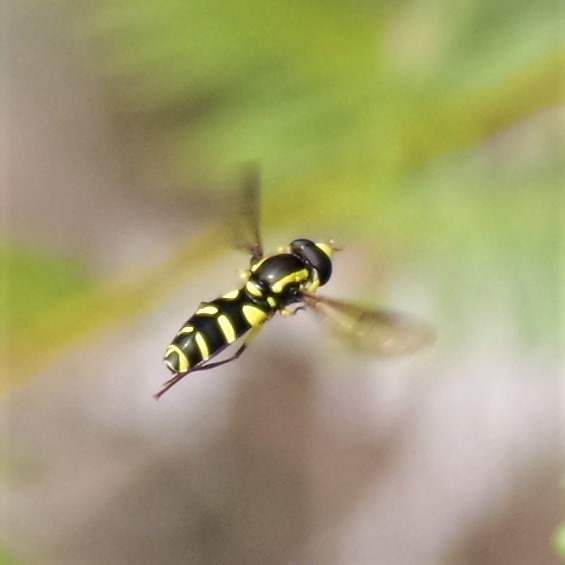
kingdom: Animalia
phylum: Arthropoda
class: Insecta
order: Diptera
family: Syrphidae
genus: Philhelius
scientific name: Philhelius pedissequum
